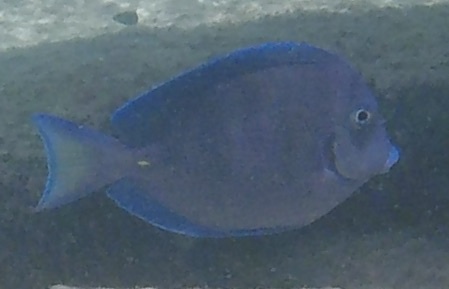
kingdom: Animalia
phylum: Chordata
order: Perciformes
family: Acanthuridae
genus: Acanthurus
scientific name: Acanthurus coeruleus
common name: Blue tang
